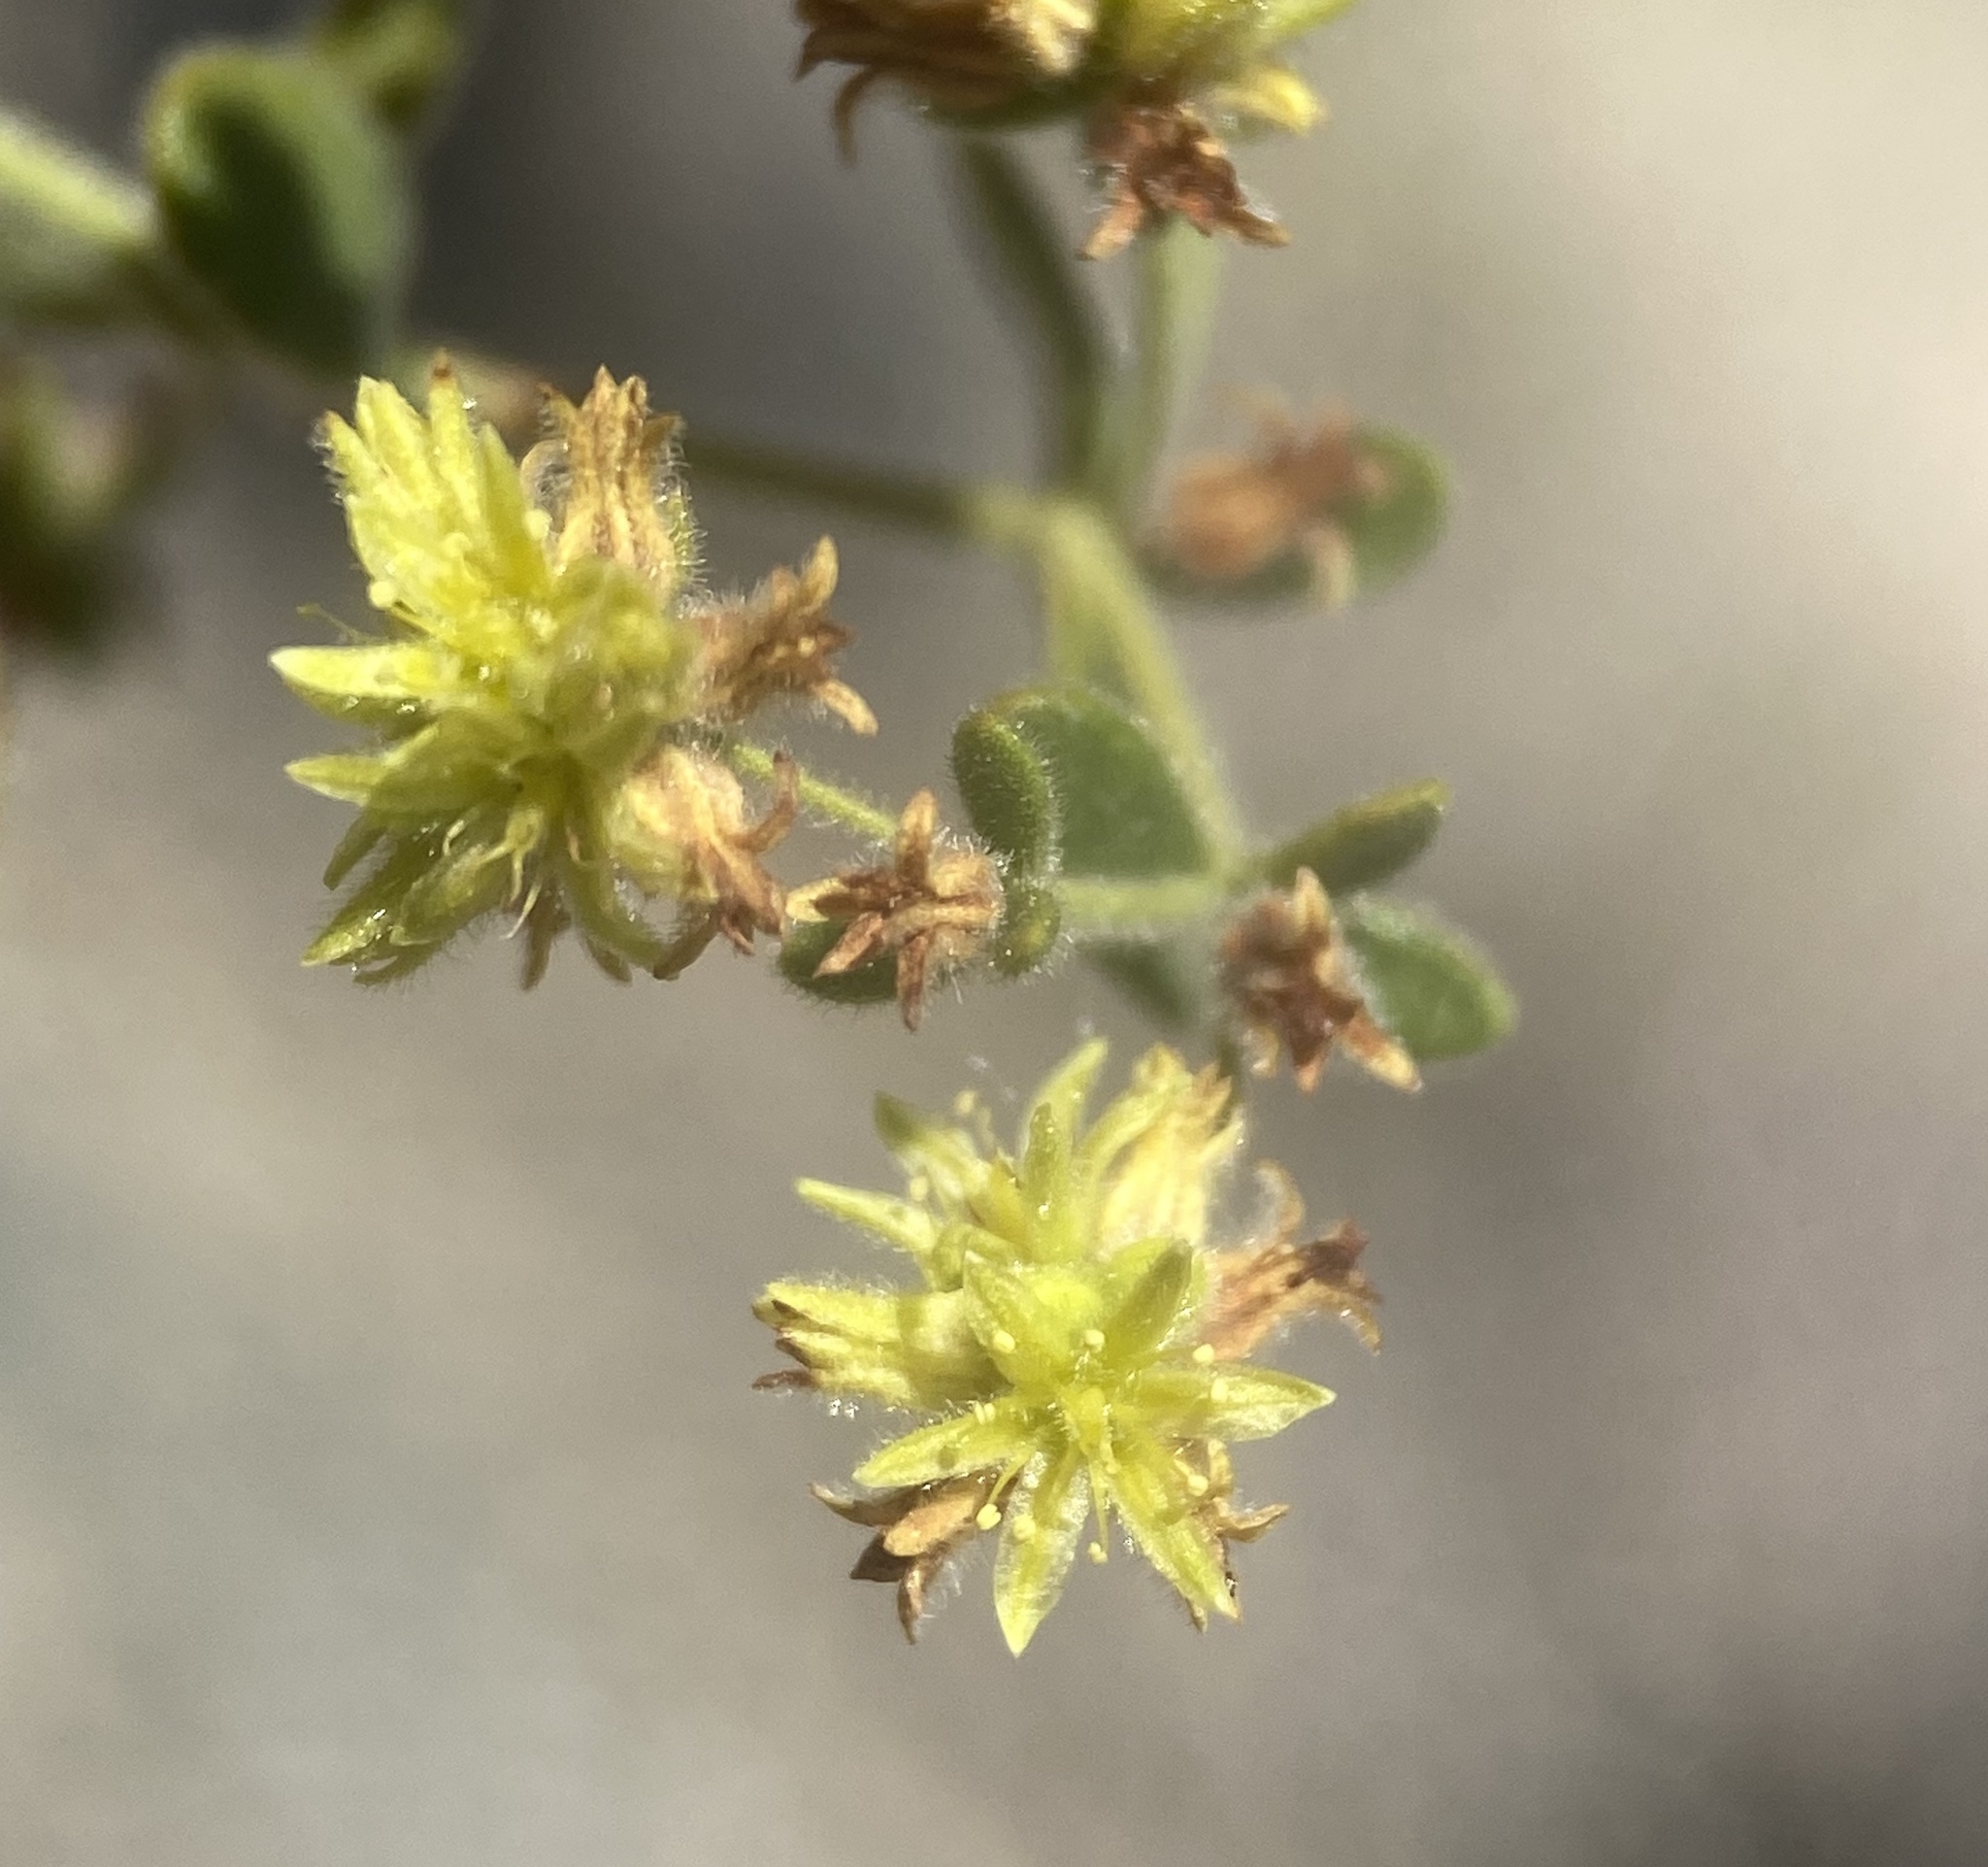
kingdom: Plantae
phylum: Tracheophyta
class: Magnoliopsida
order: Caryophyllales
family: Polygonaceae
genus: Dedeckera
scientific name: Dedeckera eurekensis
